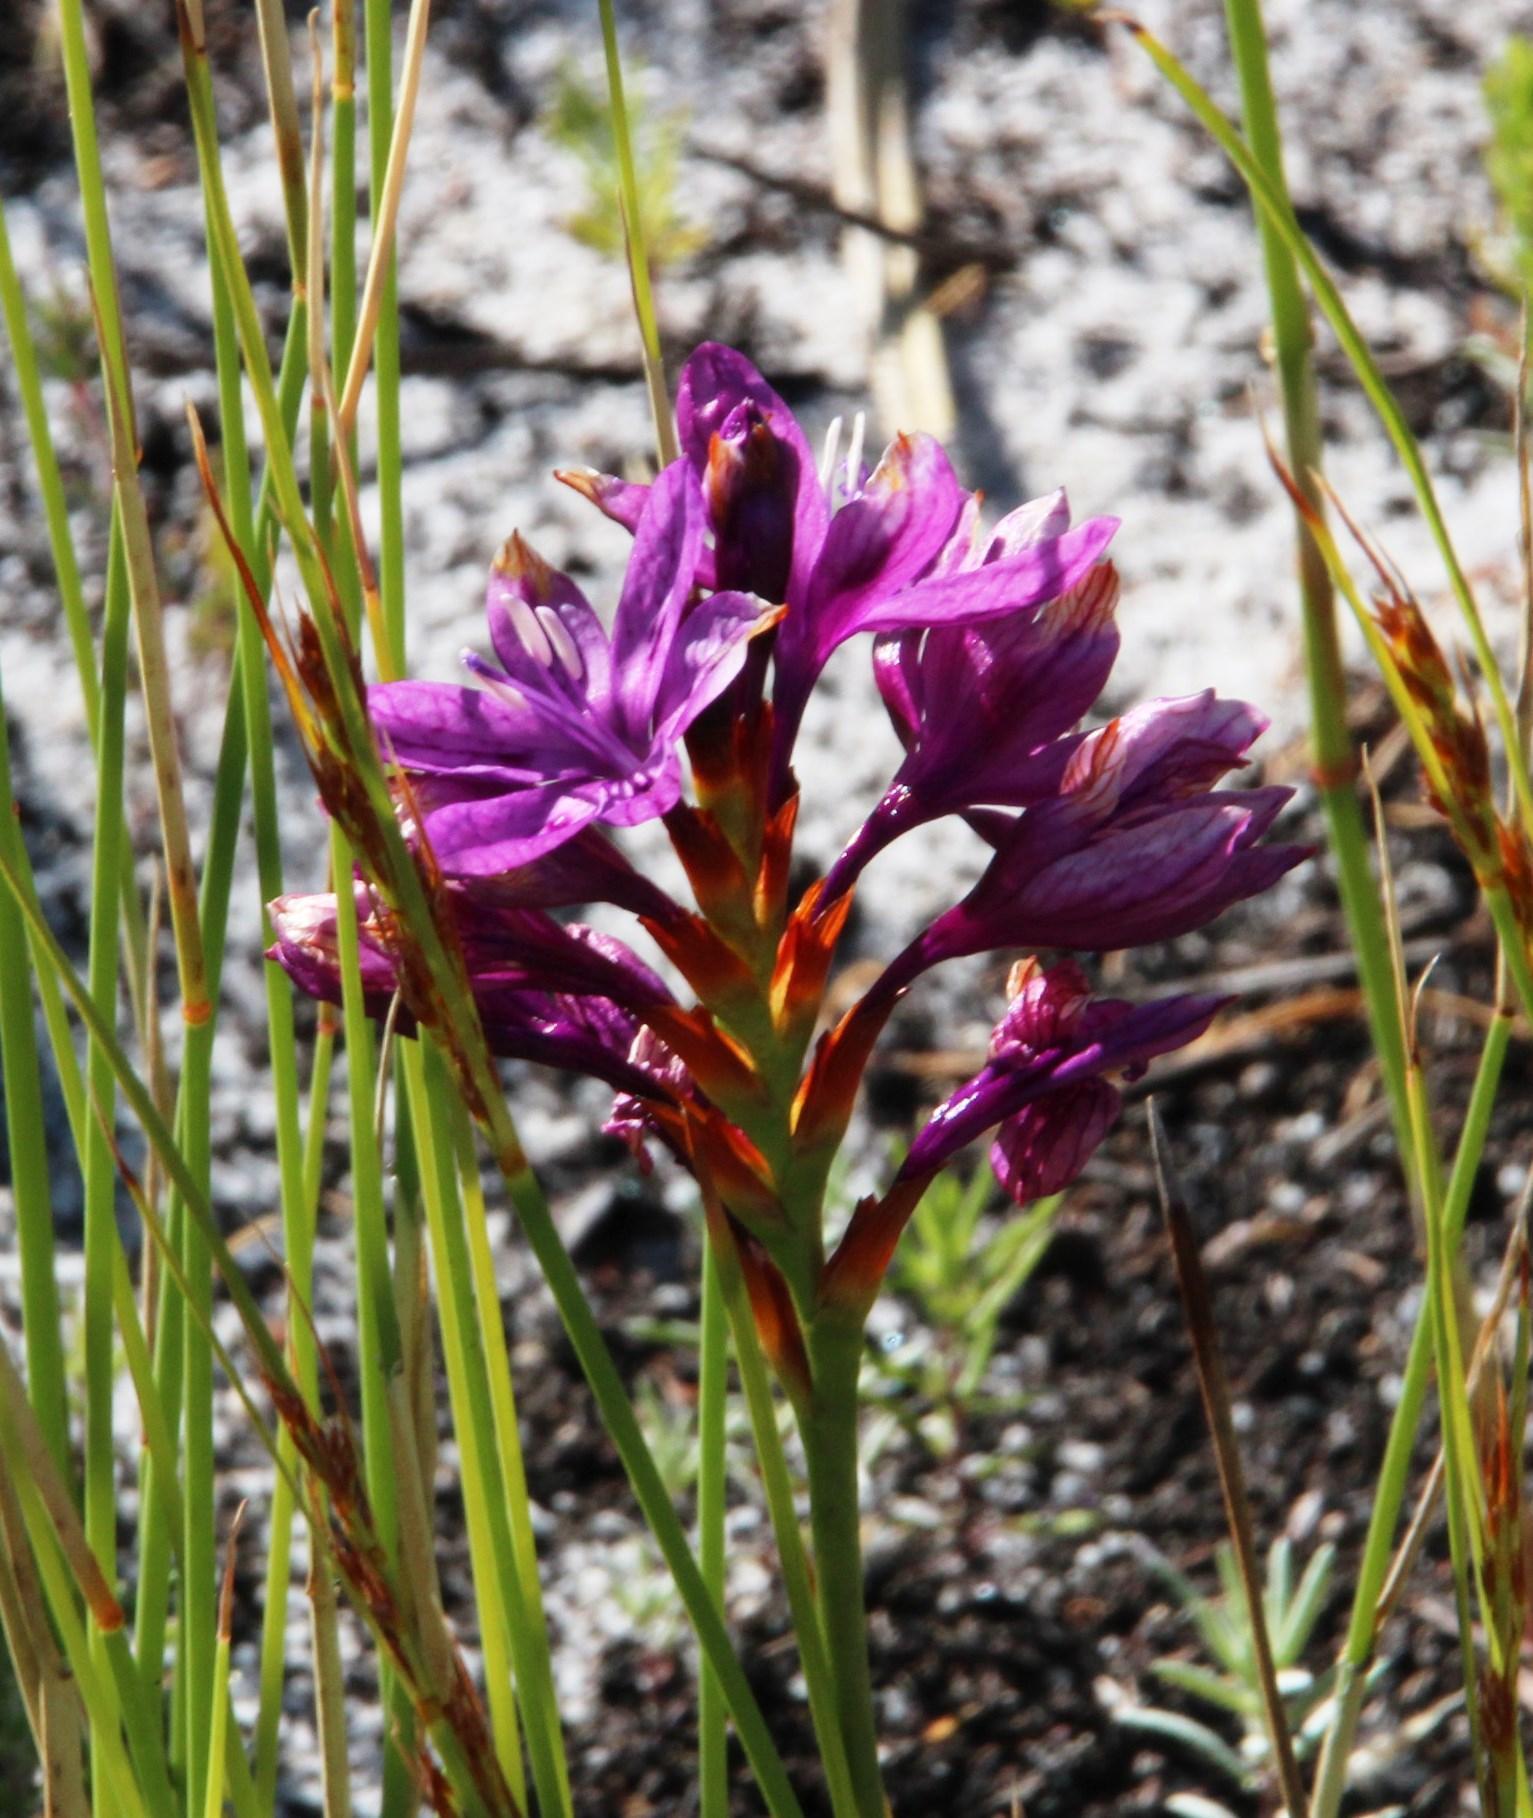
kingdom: Plantae
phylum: Tracheophyta
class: Liliopsida
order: Asparagales
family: Iridaceae
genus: Thereianthus
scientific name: Thereianthus bracteolatus
